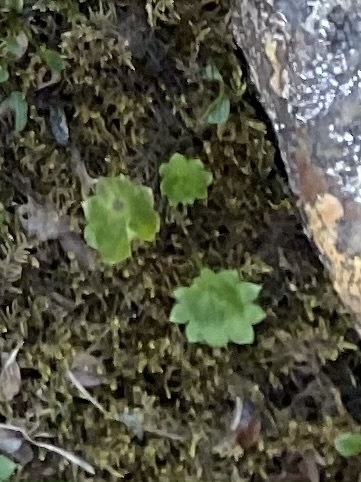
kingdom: Plantae
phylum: Tracheophyta
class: Magnoliopsida
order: Saxifragales
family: Saxifragaceae
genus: Micranthes
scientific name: Micranthes nelsoniana
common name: Nelson's saxifrage
